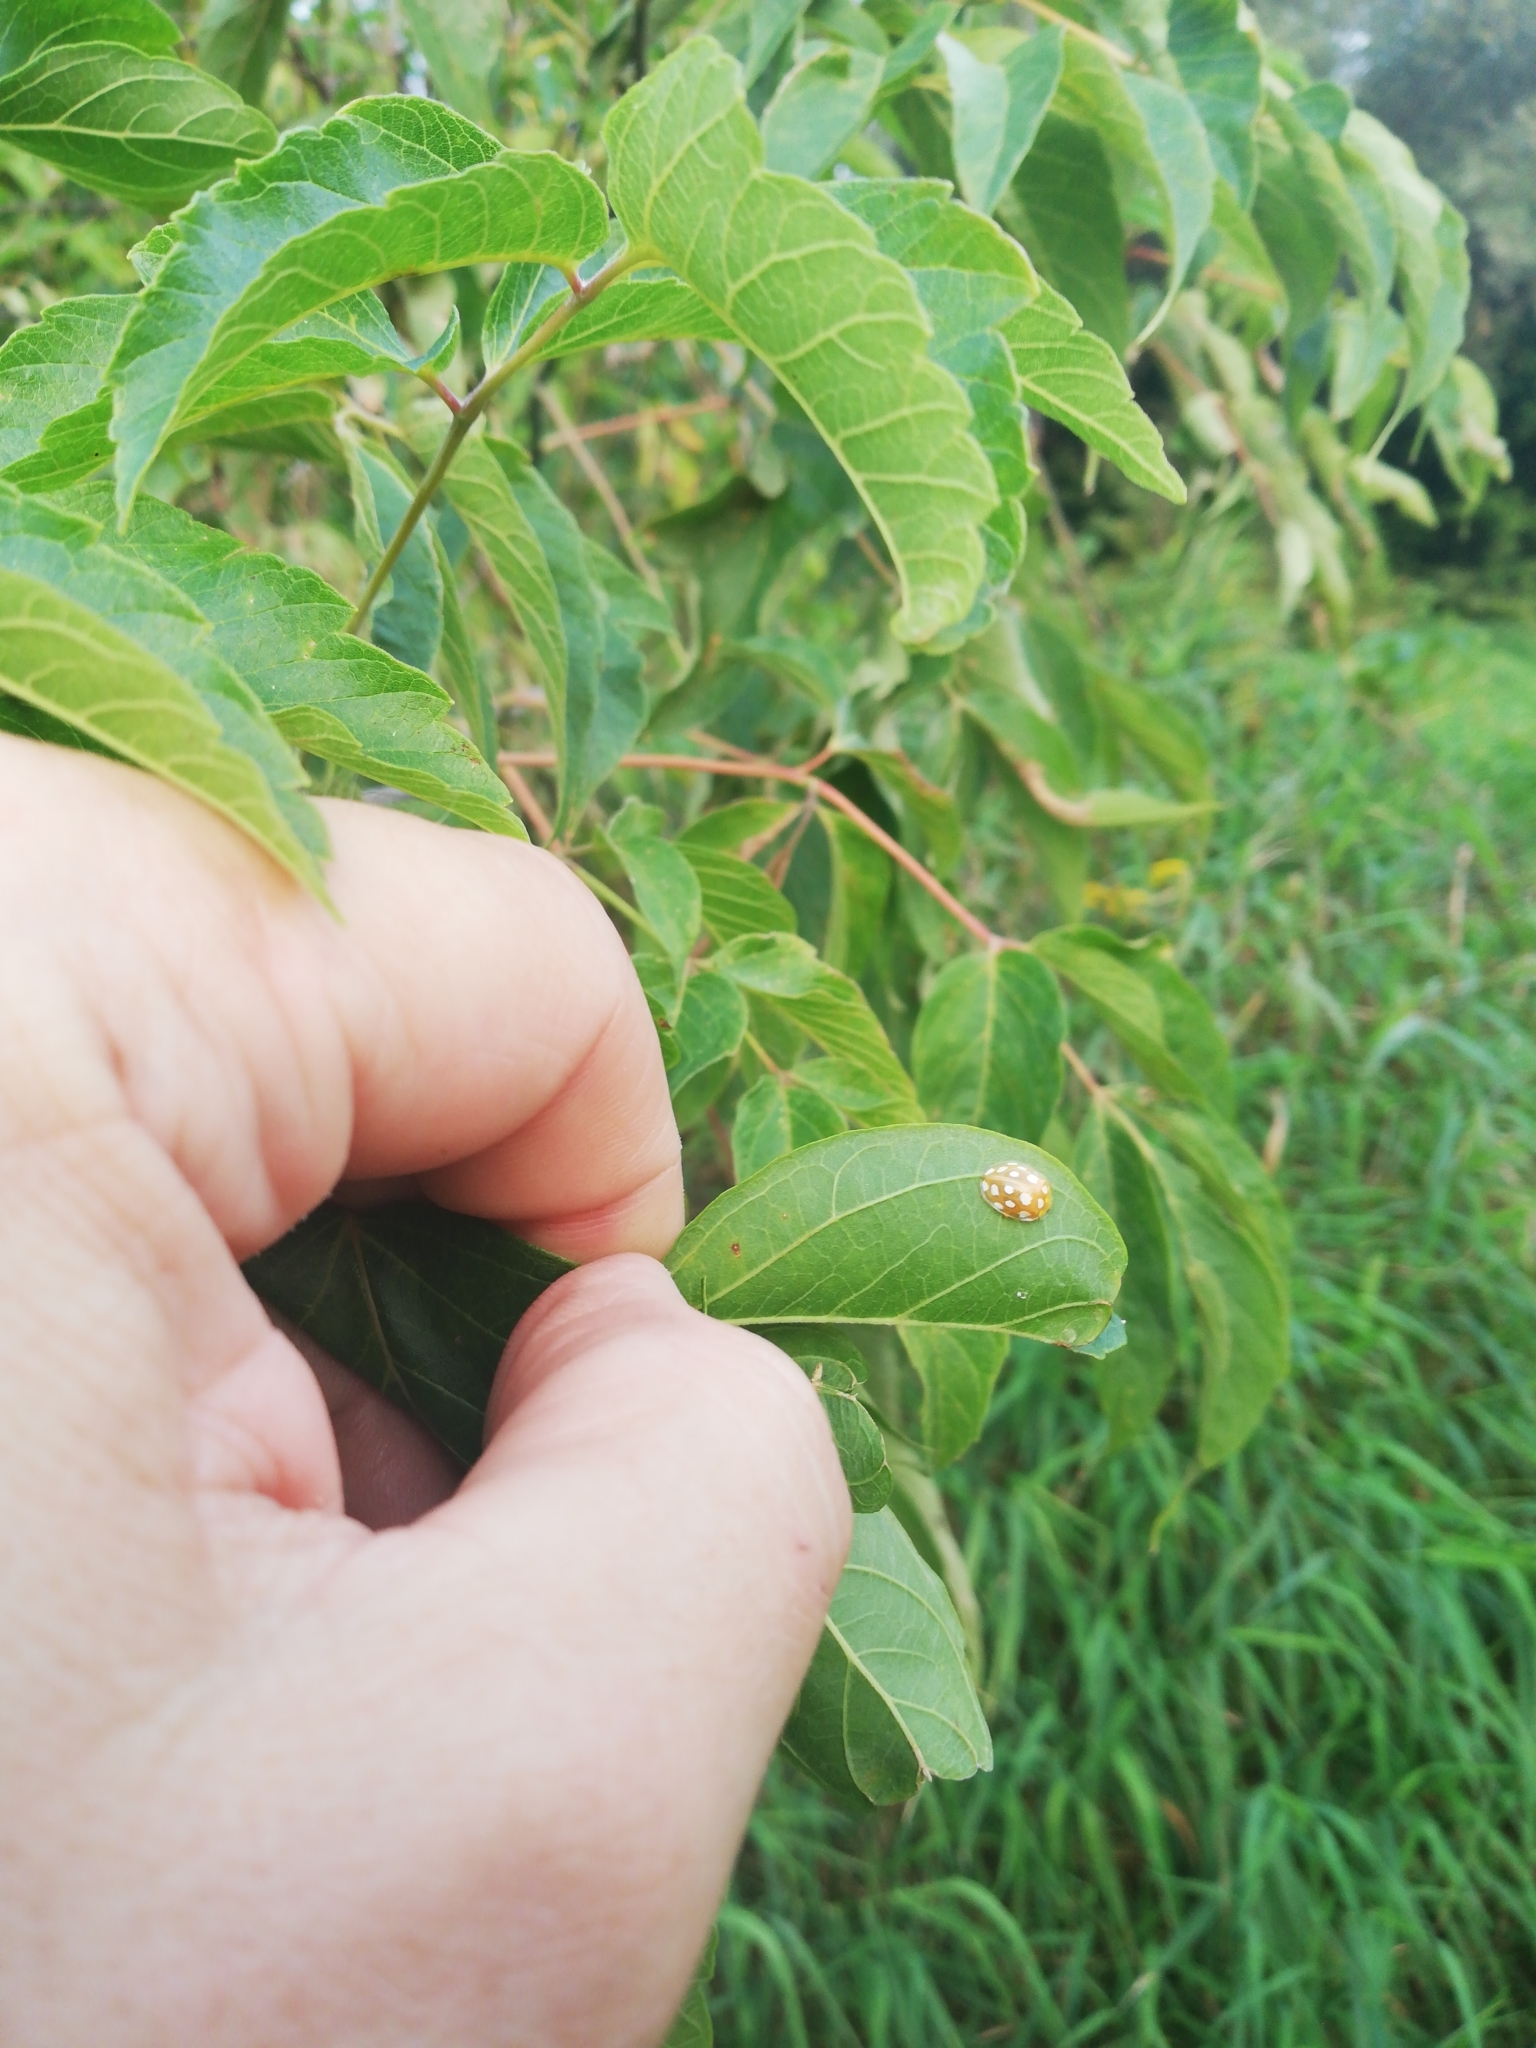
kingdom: Animalia
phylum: Arthropoda
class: Insecta
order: Coleoptera
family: Coccinellidae
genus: Halyzia
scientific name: Halyzia sedecimguttata
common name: Orange ladybird
